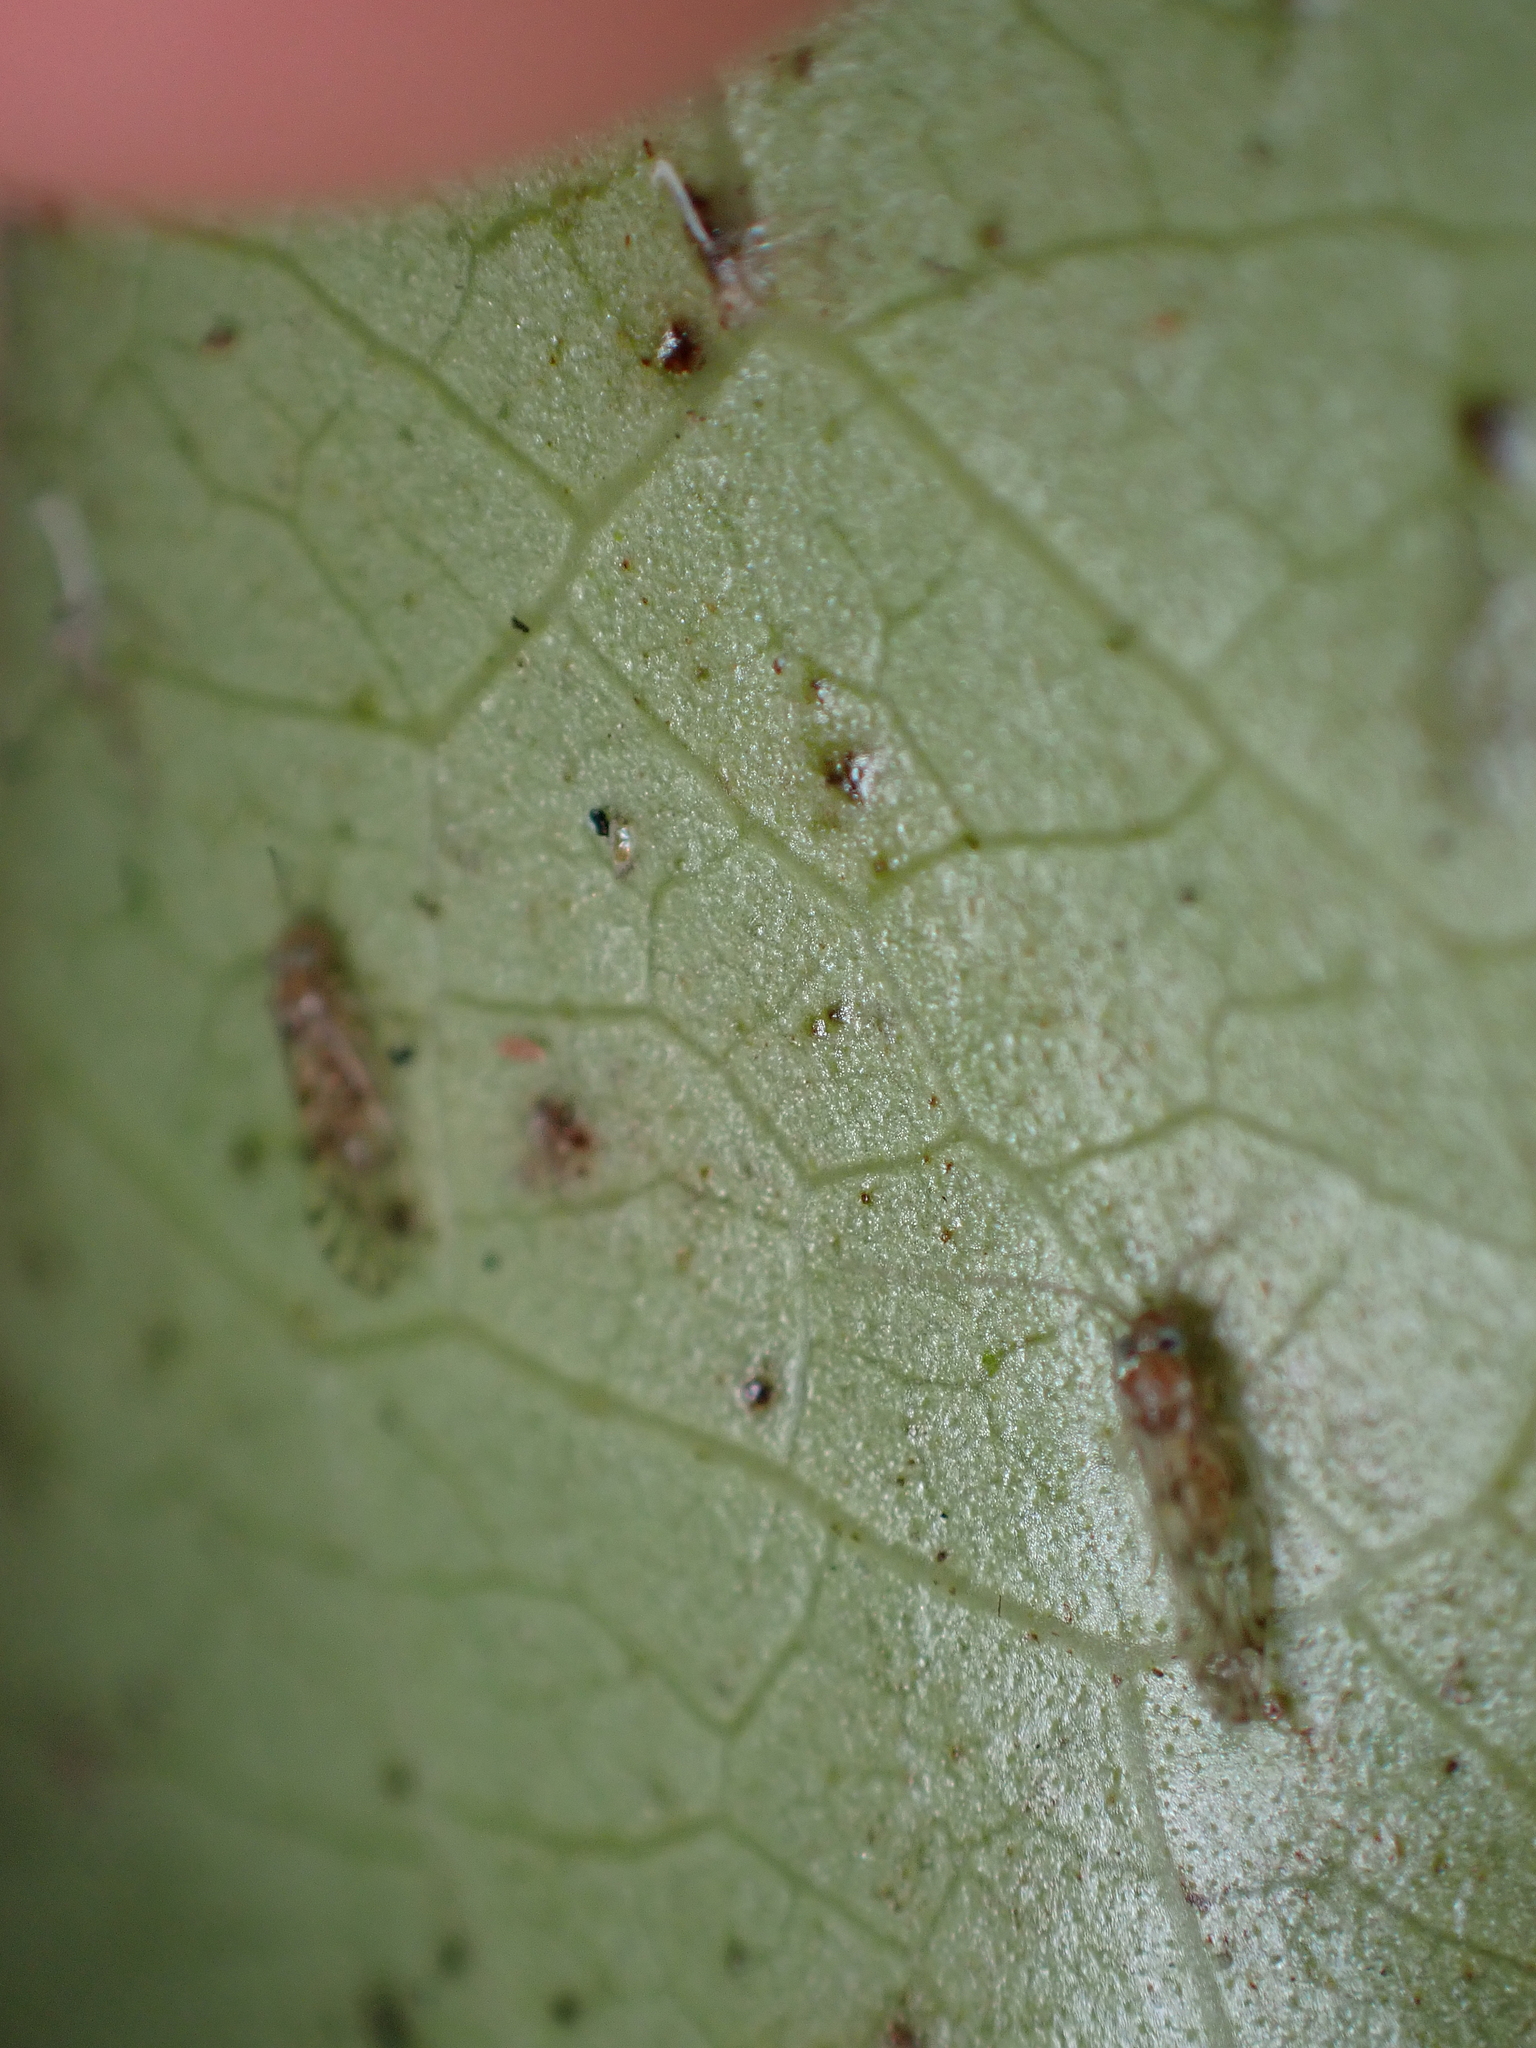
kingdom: Animalia
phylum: Arthropoda
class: Insecta
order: Psocodea
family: Pseudocaeciliidae
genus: Lobocaecilius
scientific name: Lobocaecilius monicus
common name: Barklice
